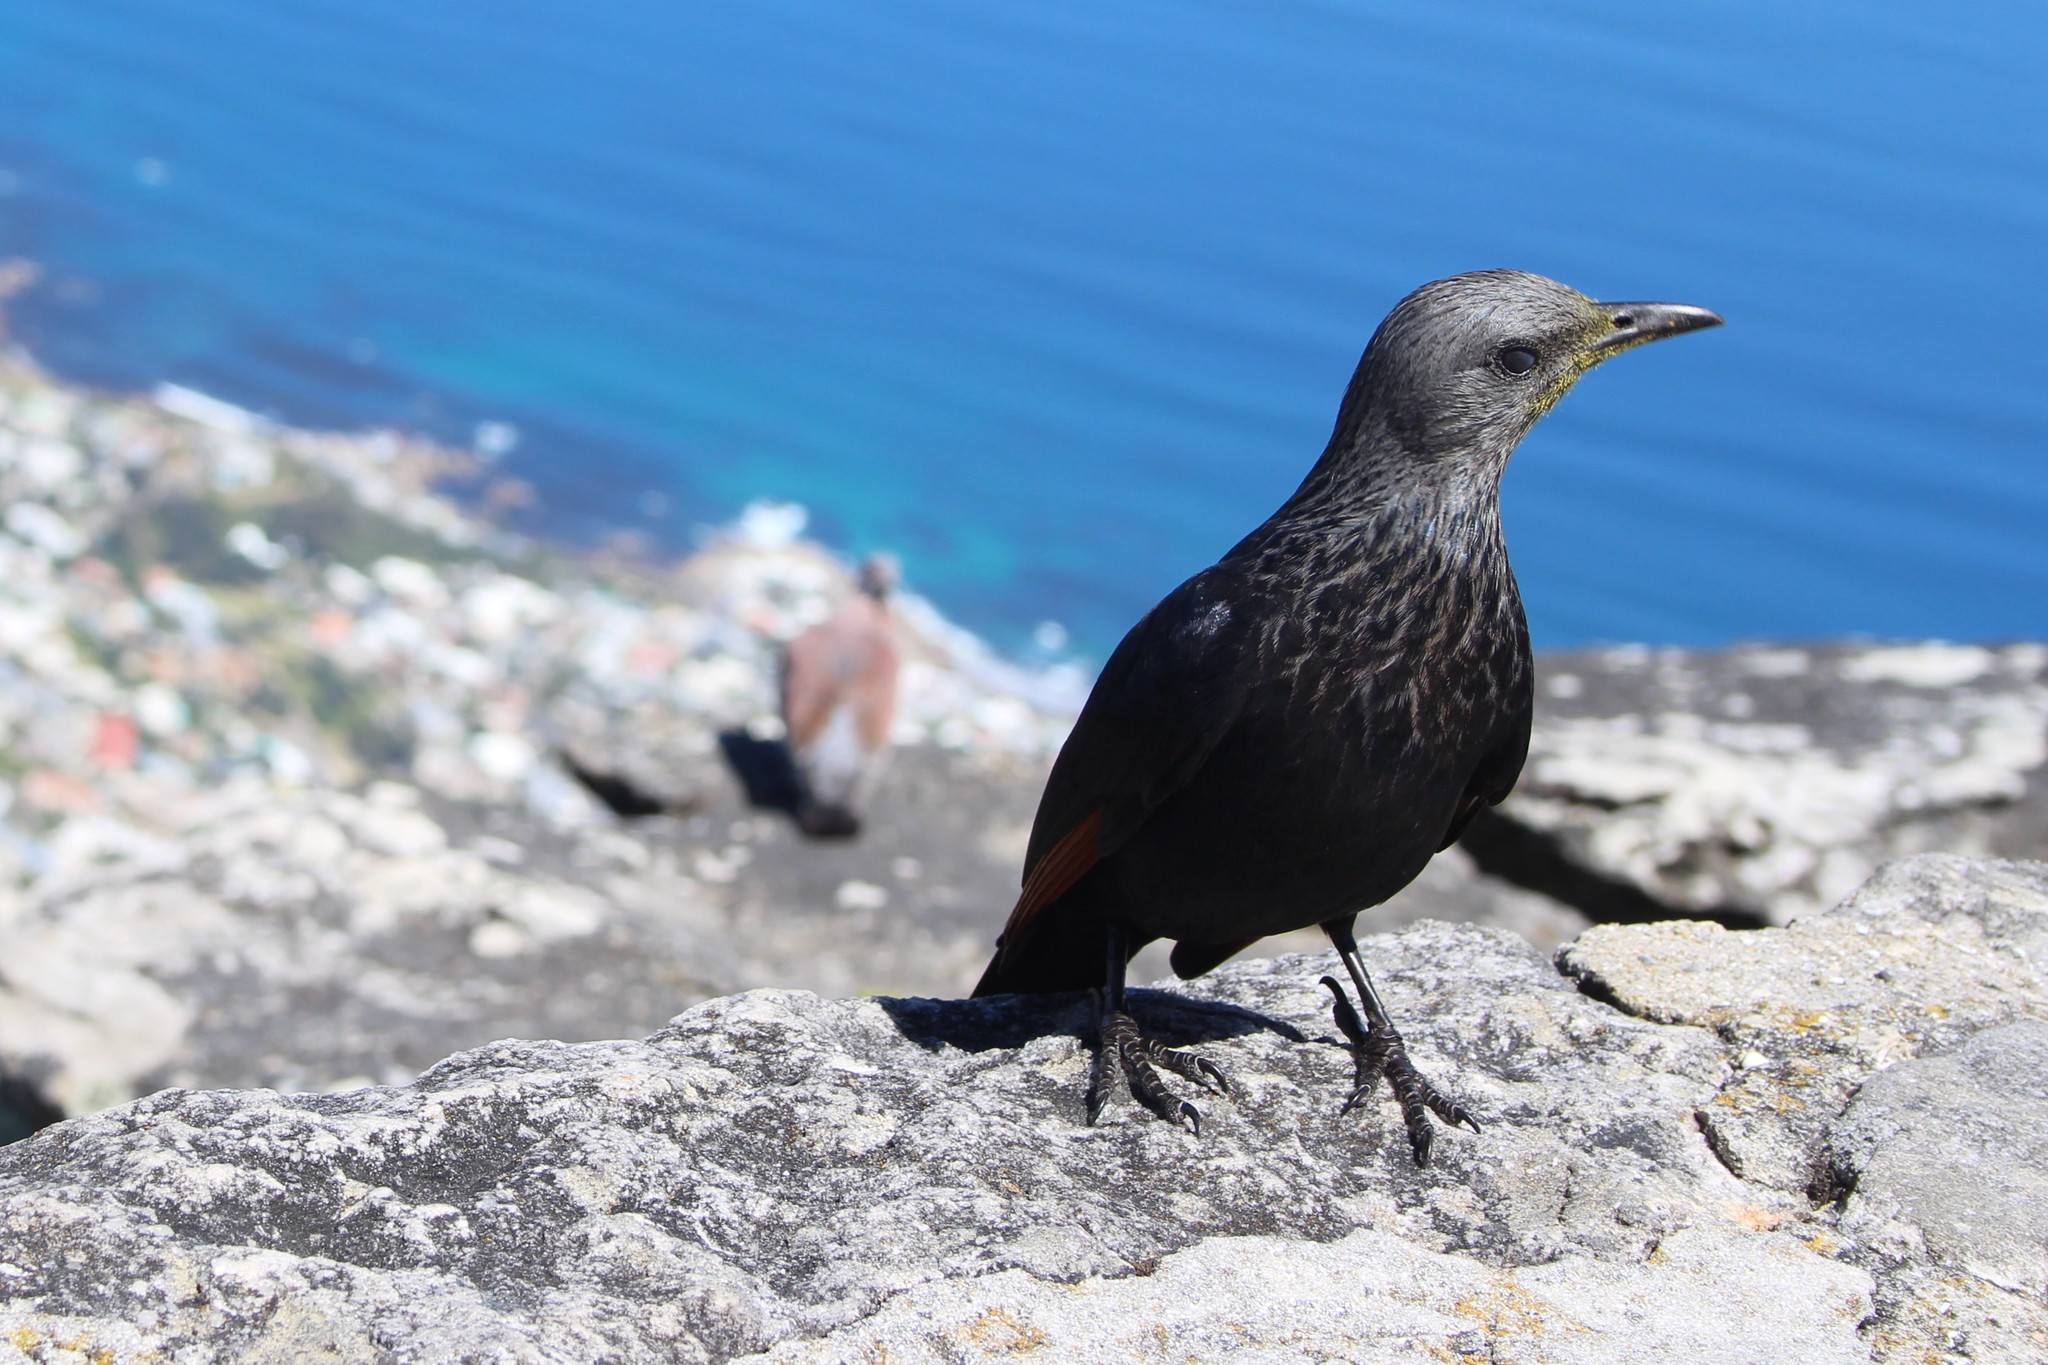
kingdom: Animalia
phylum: Chordata
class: Aves
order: Passeriformes
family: Sturnidae
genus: Onychognathus
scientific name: Onychognathus morio
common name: Red-winged starling
